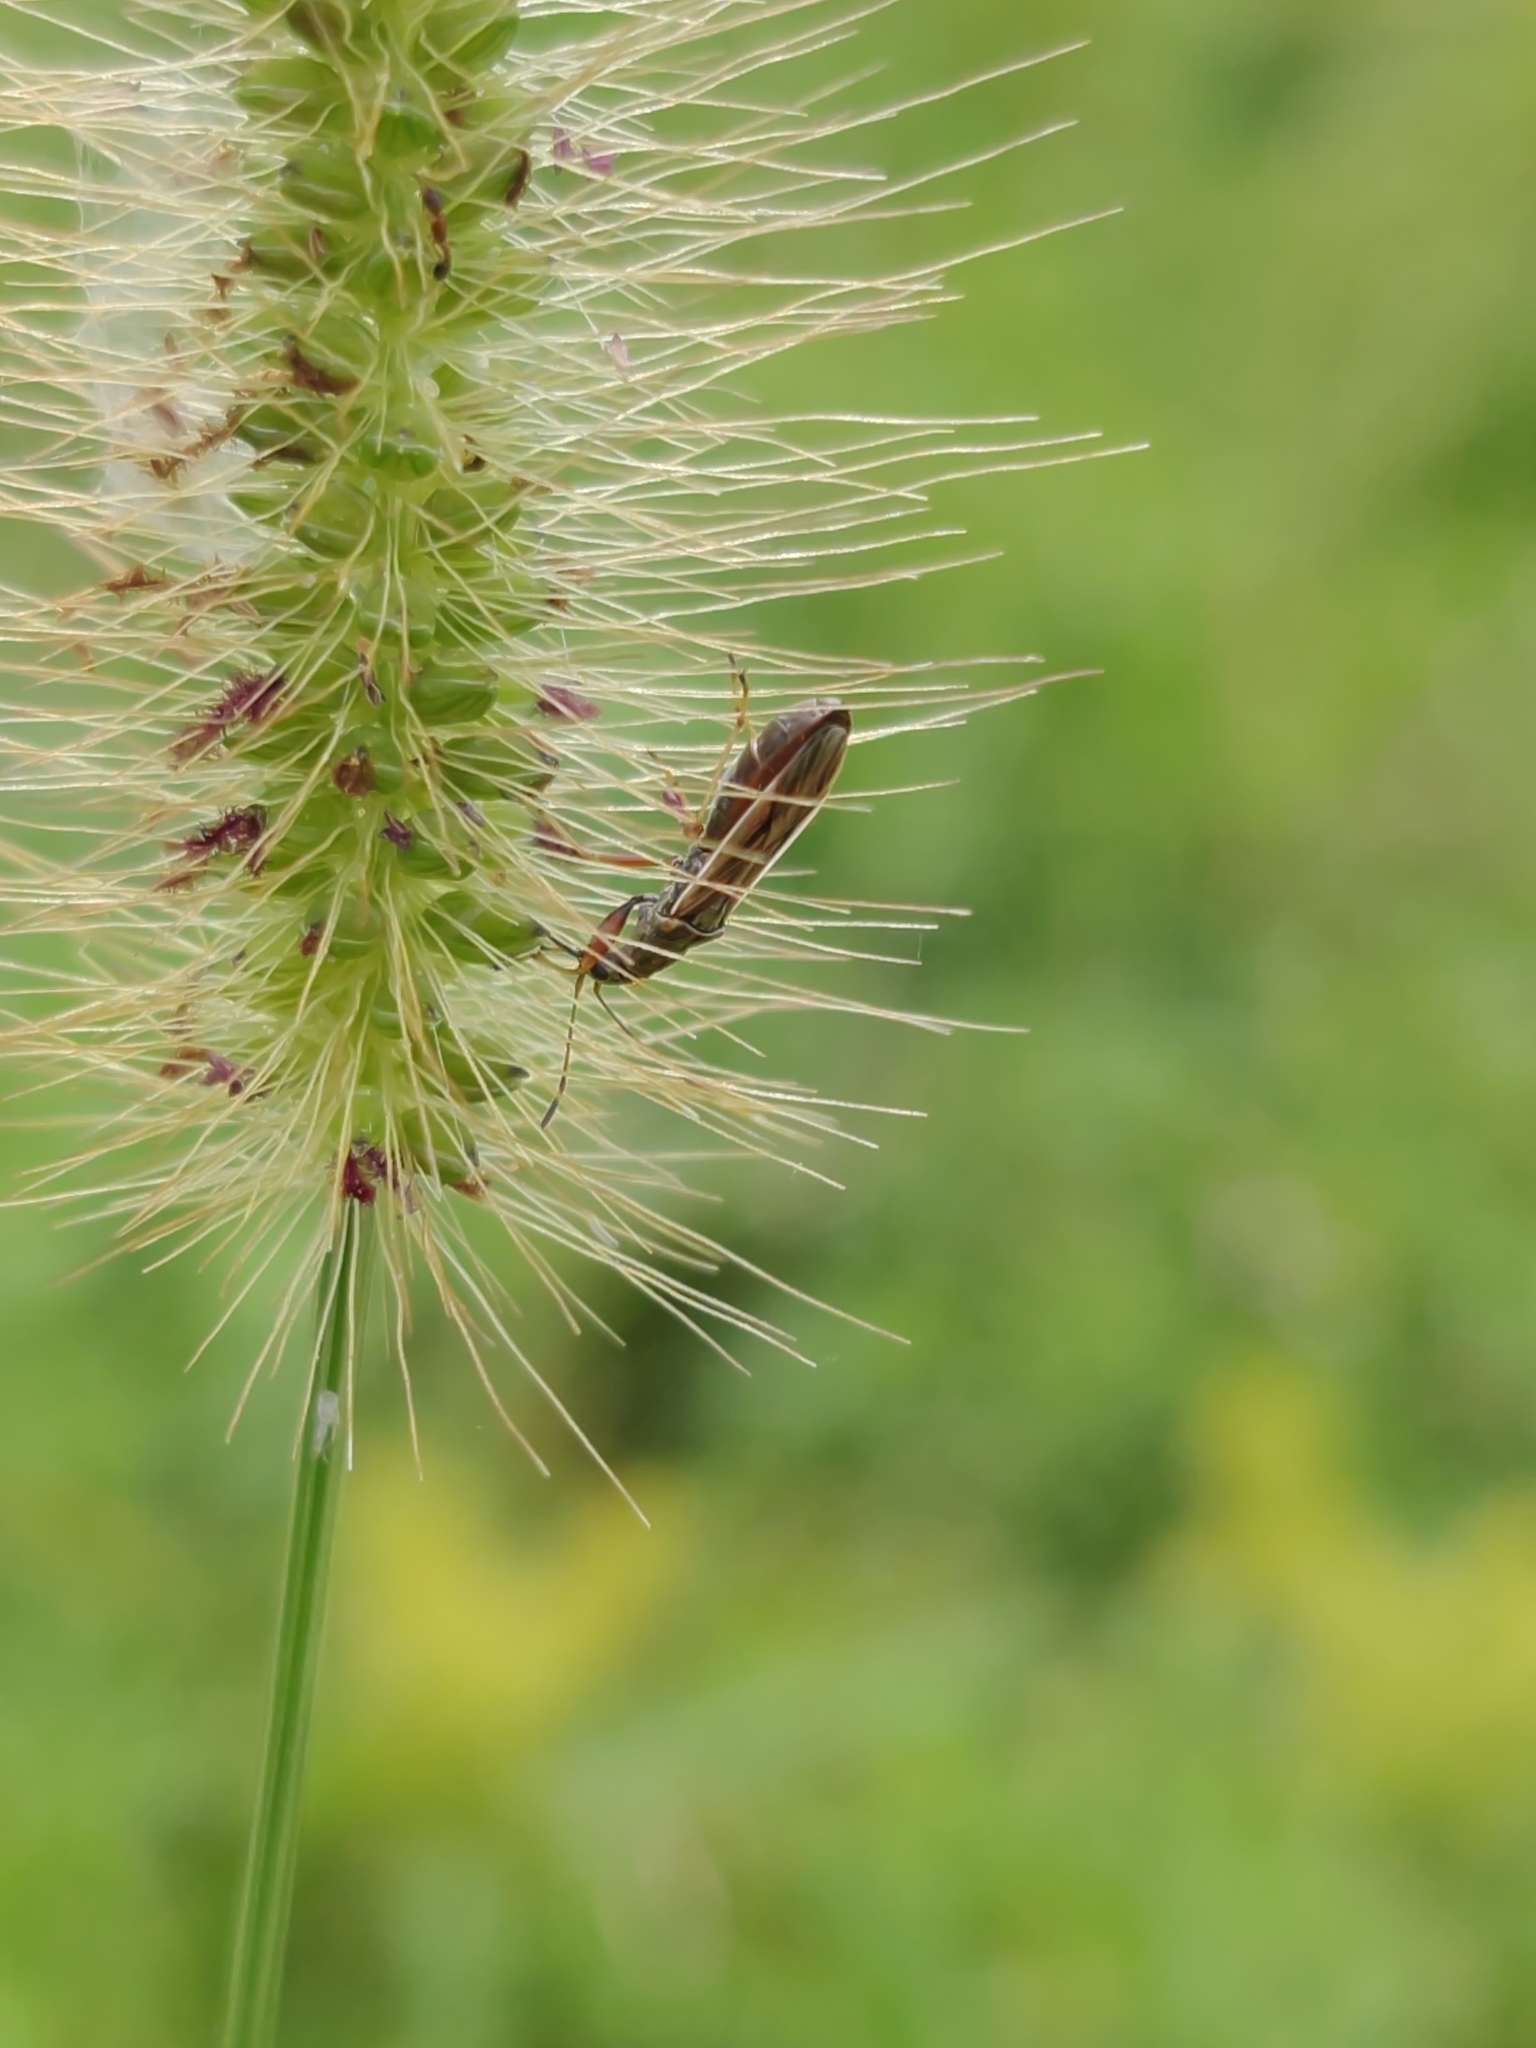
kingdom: Animalia
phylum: Arthropoda
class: Insecta
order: Hemiptera
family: Rhyparochromidae
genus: Paromius
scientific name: Paromius longulus
